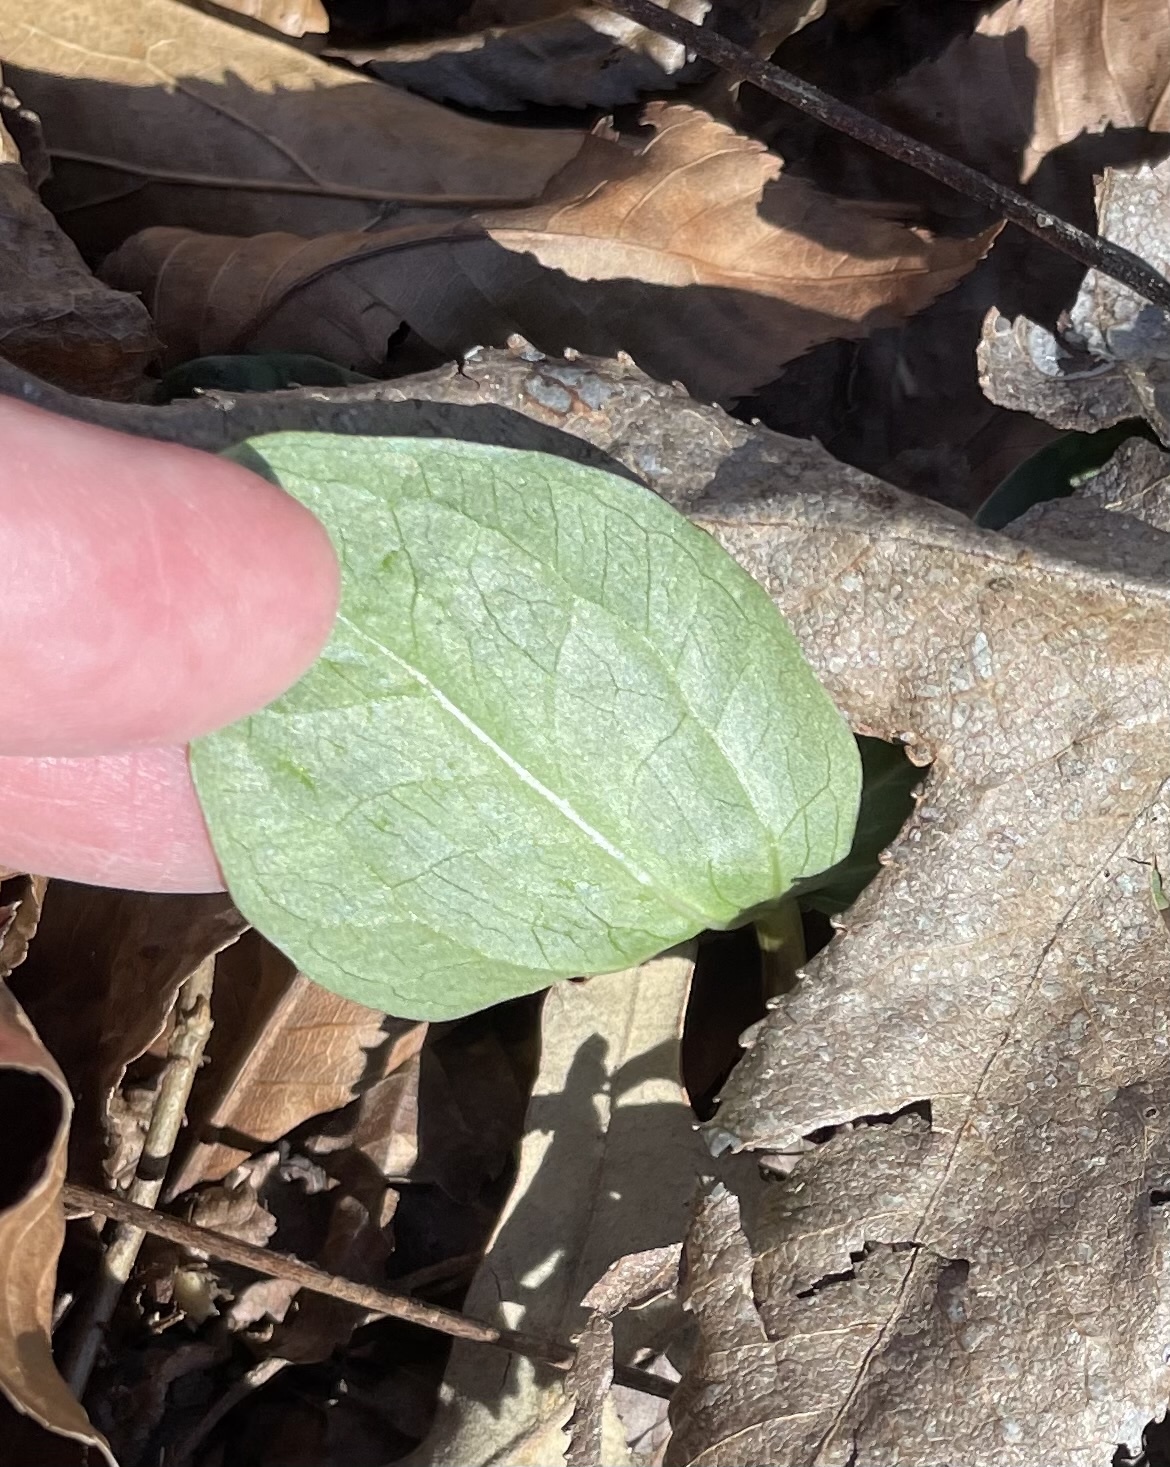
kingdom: Plantae
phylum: Tracheophyta
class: Liliopsida
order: Liliales
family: Melanthiaceae
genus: Trillium
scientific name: Trillium foetidissimum
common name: Mississippi river trillium
